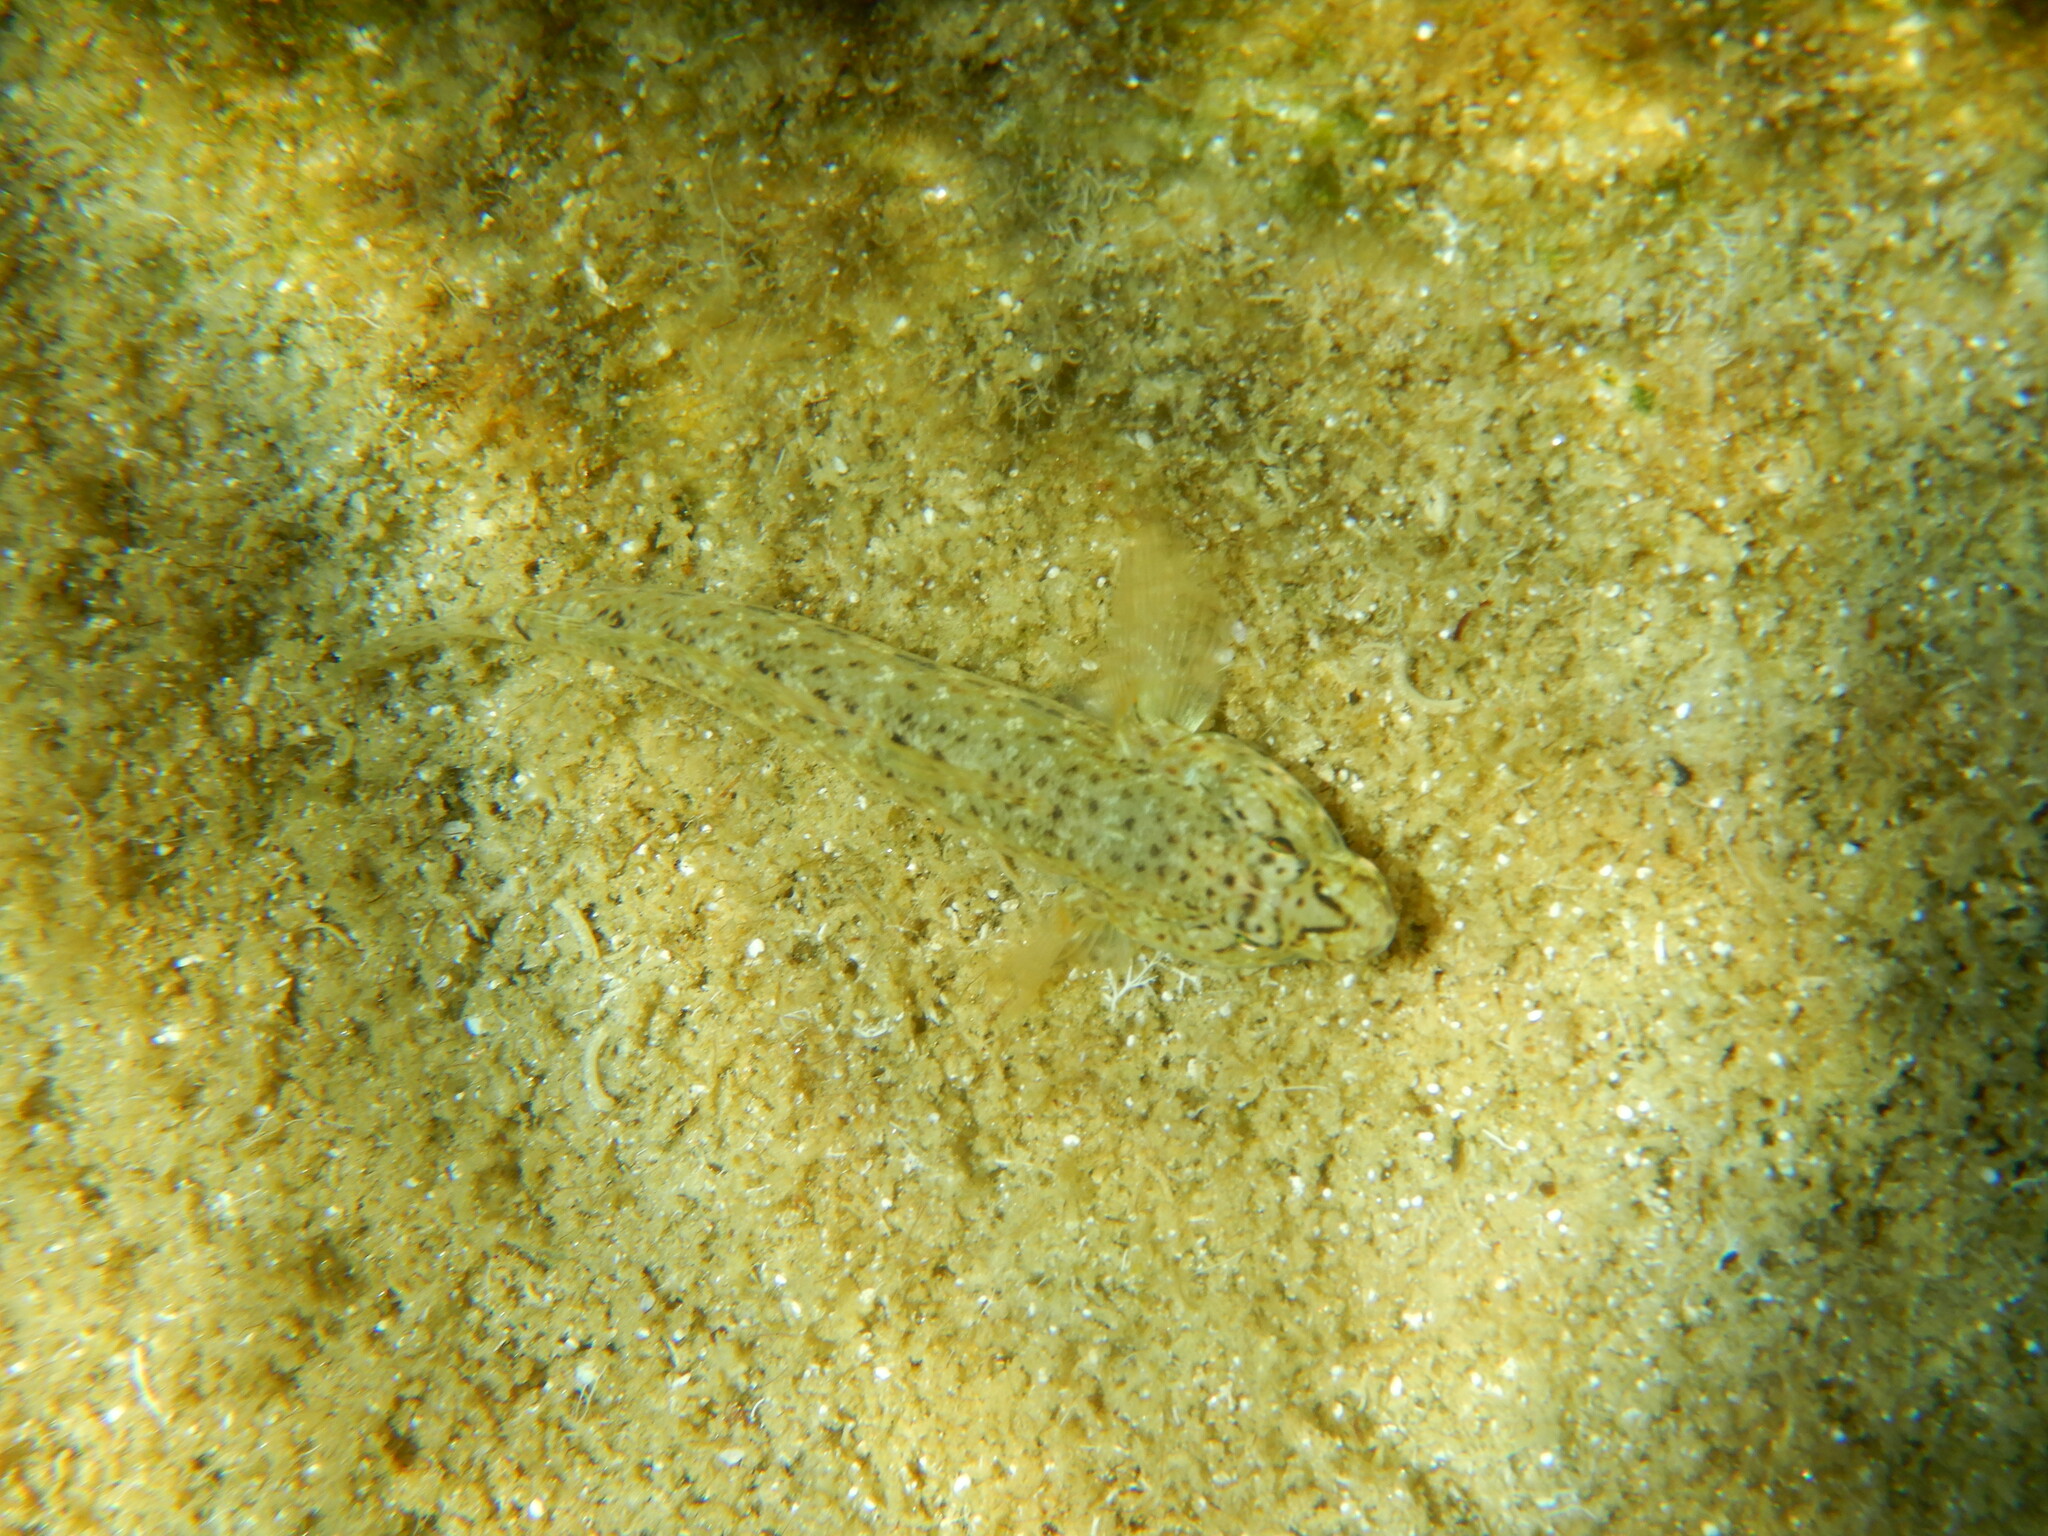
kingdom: Animalia
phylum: Chordata
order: Perciformes
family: Gobiidae
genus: Gobius
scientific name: Gobius incognitus
